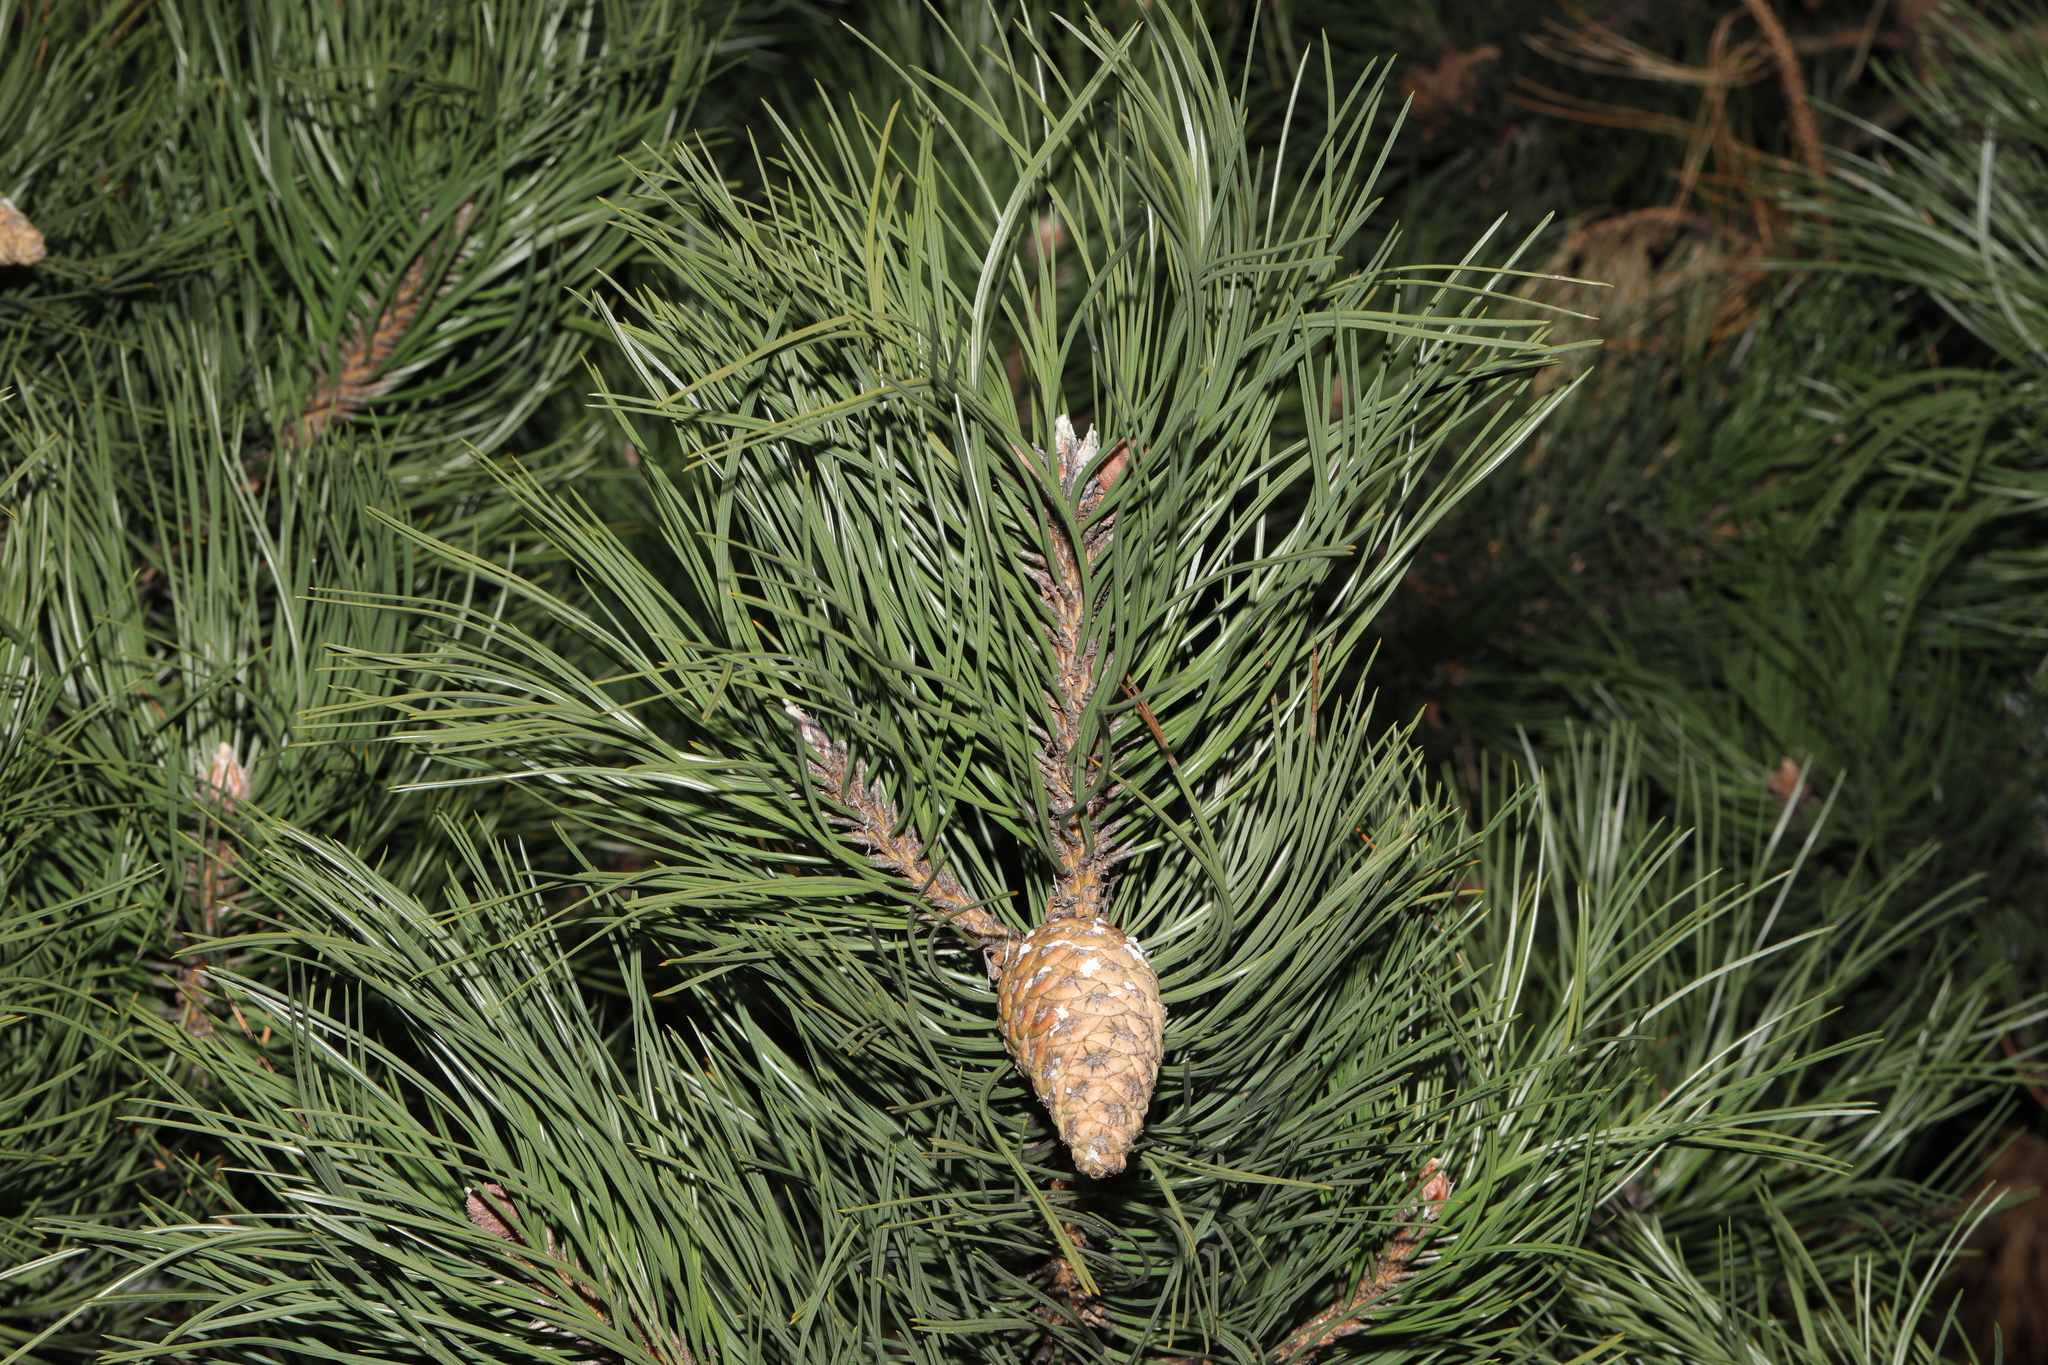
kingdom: Plantae
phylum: Tracheophyta
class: Pinopsida
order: Pinales
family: Pinaceae
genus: Pinus
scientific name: Pinus sylvestris
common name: Scots pine
